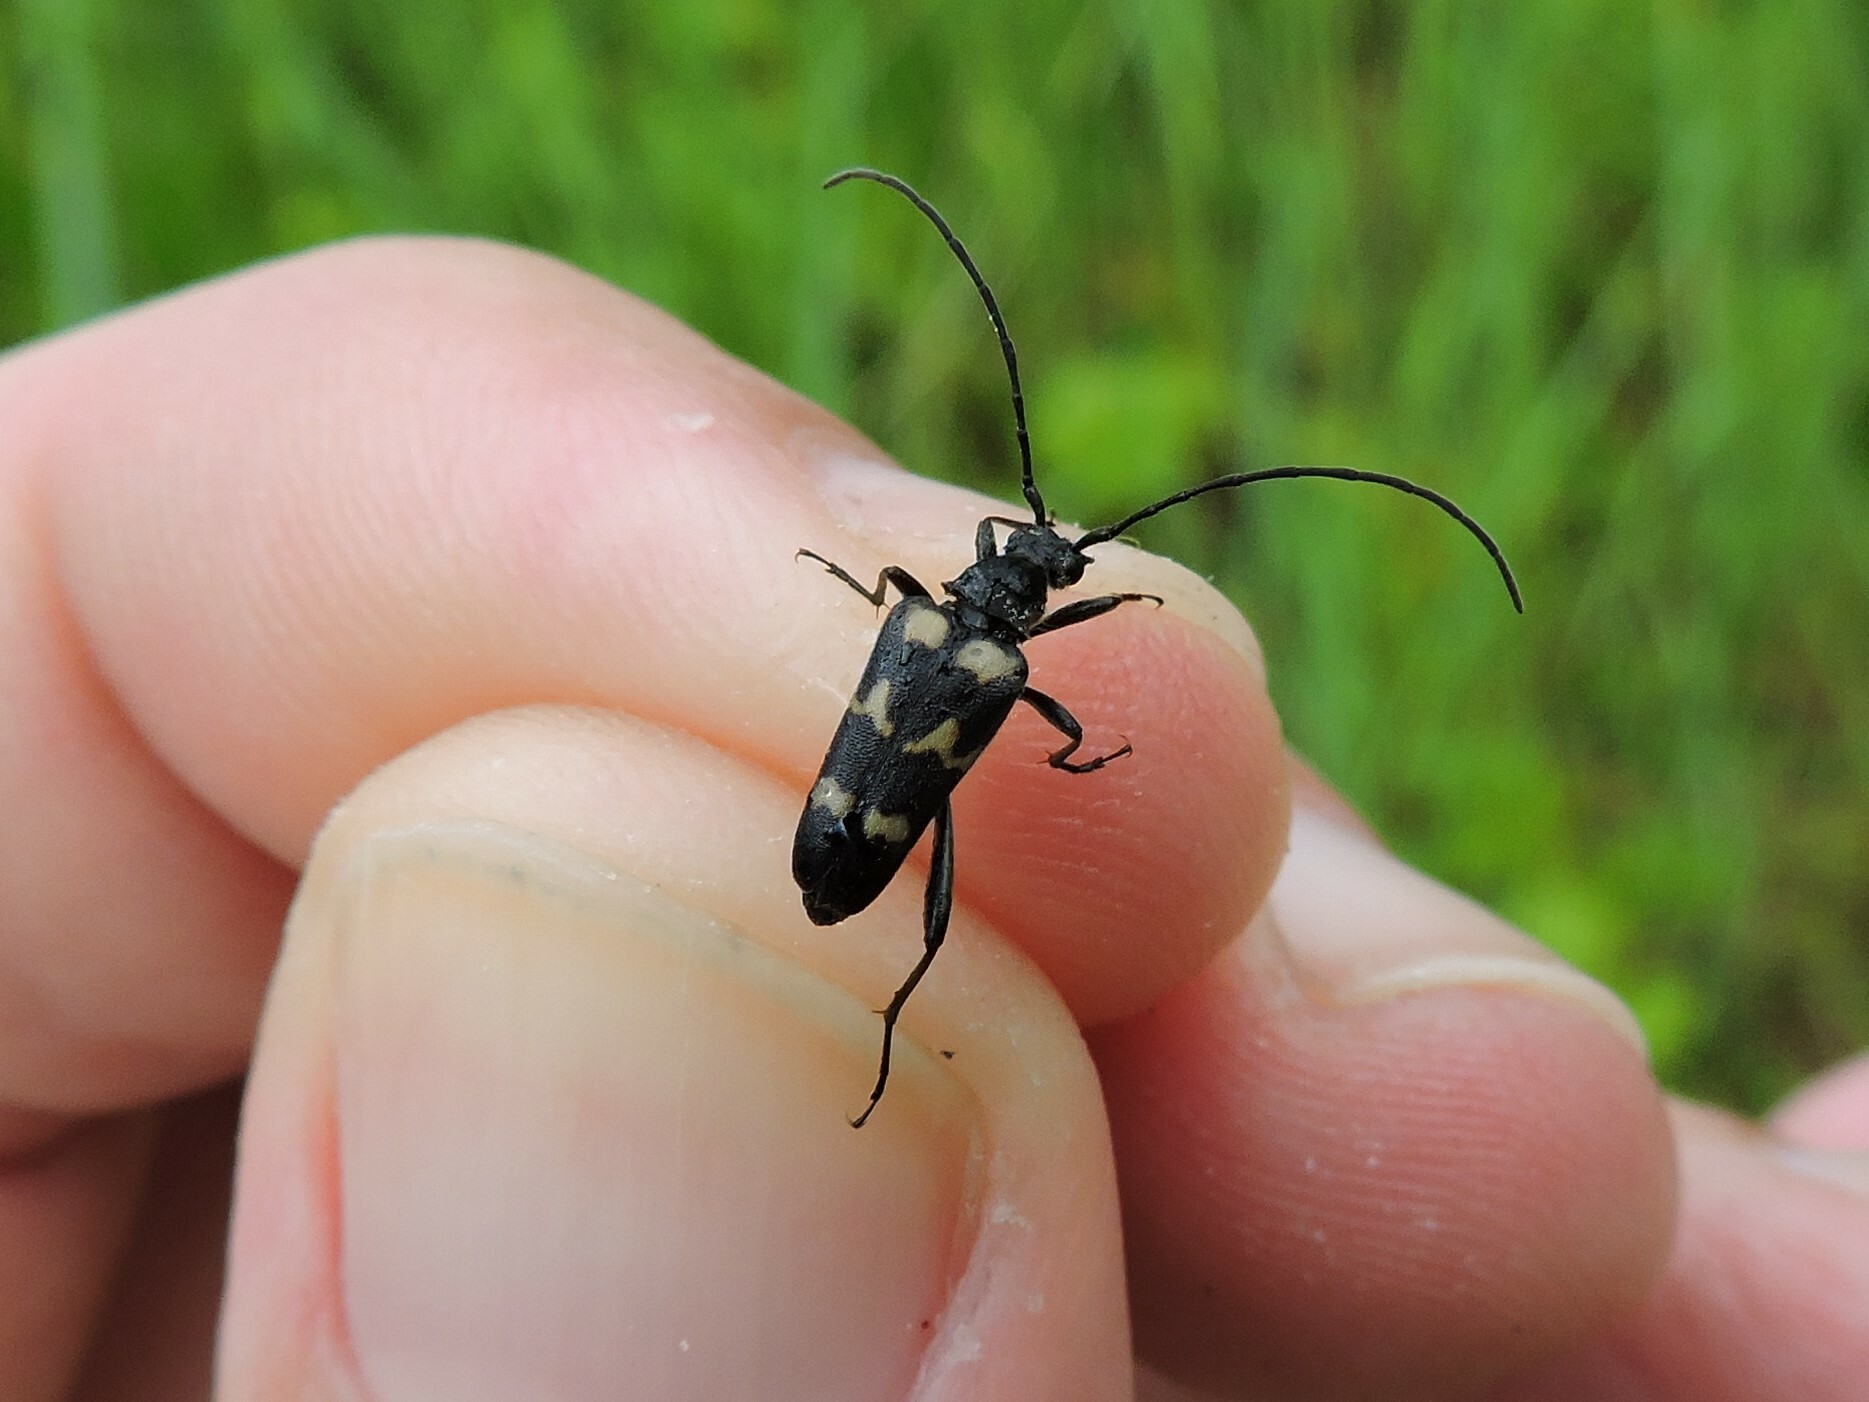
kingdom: Animalia
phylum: Arthropoda
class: Insecta
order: Coleoptera
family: Cerambycidae
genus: Judolia
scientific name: Judolia sexmaculata
